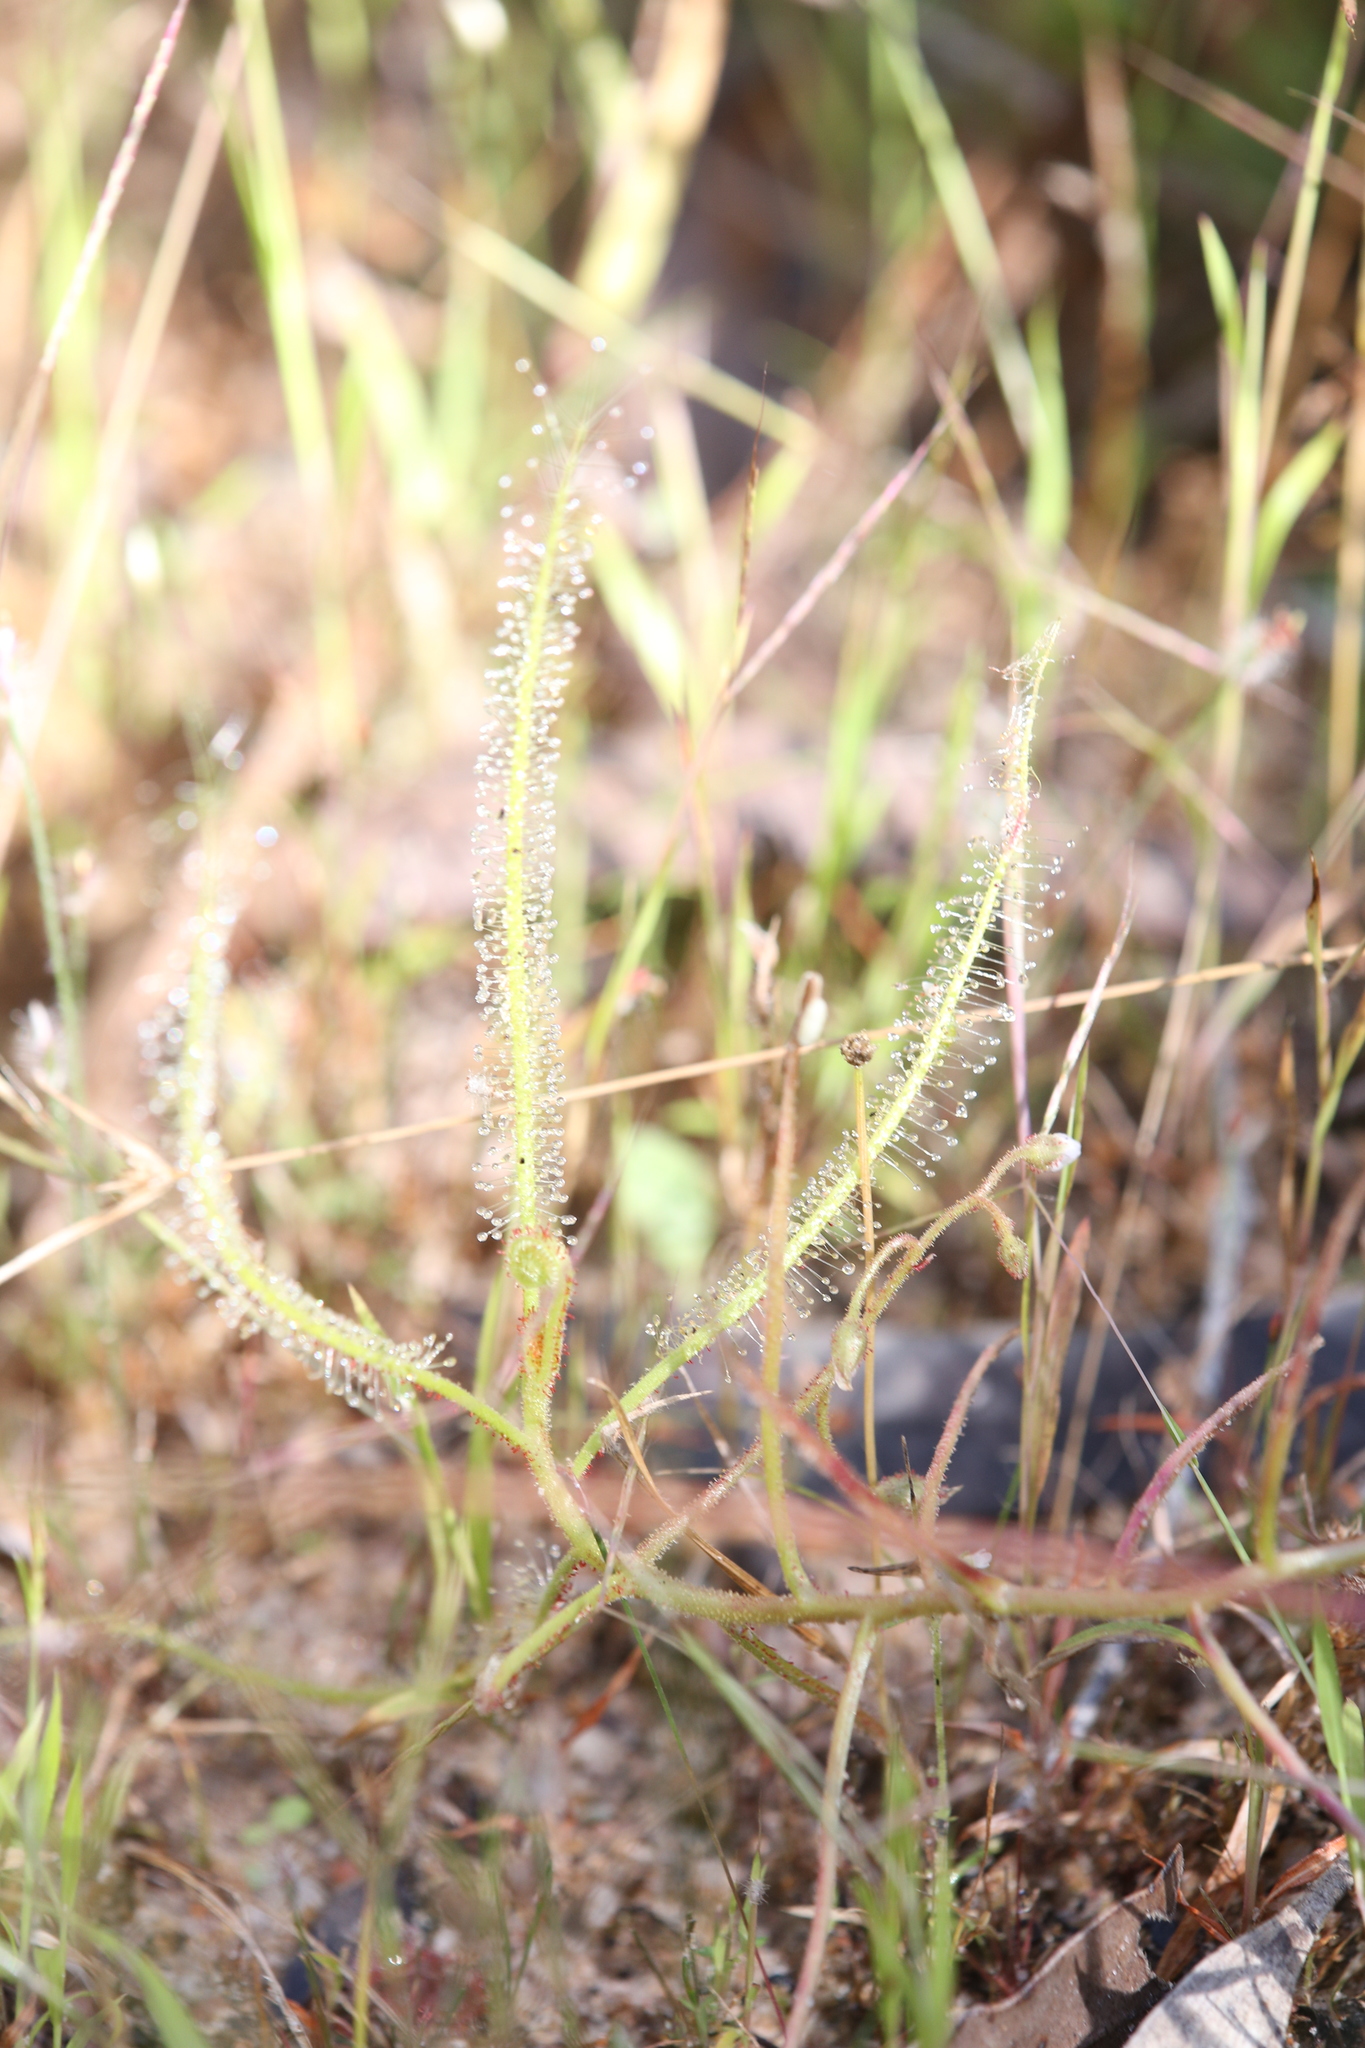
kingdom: Plantae
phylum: Tracheophyta
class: Magnoliopsida
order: Caryophyllales
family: Droseraceae
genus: Drosera
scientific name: Drosera indica
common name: Indian sundew
